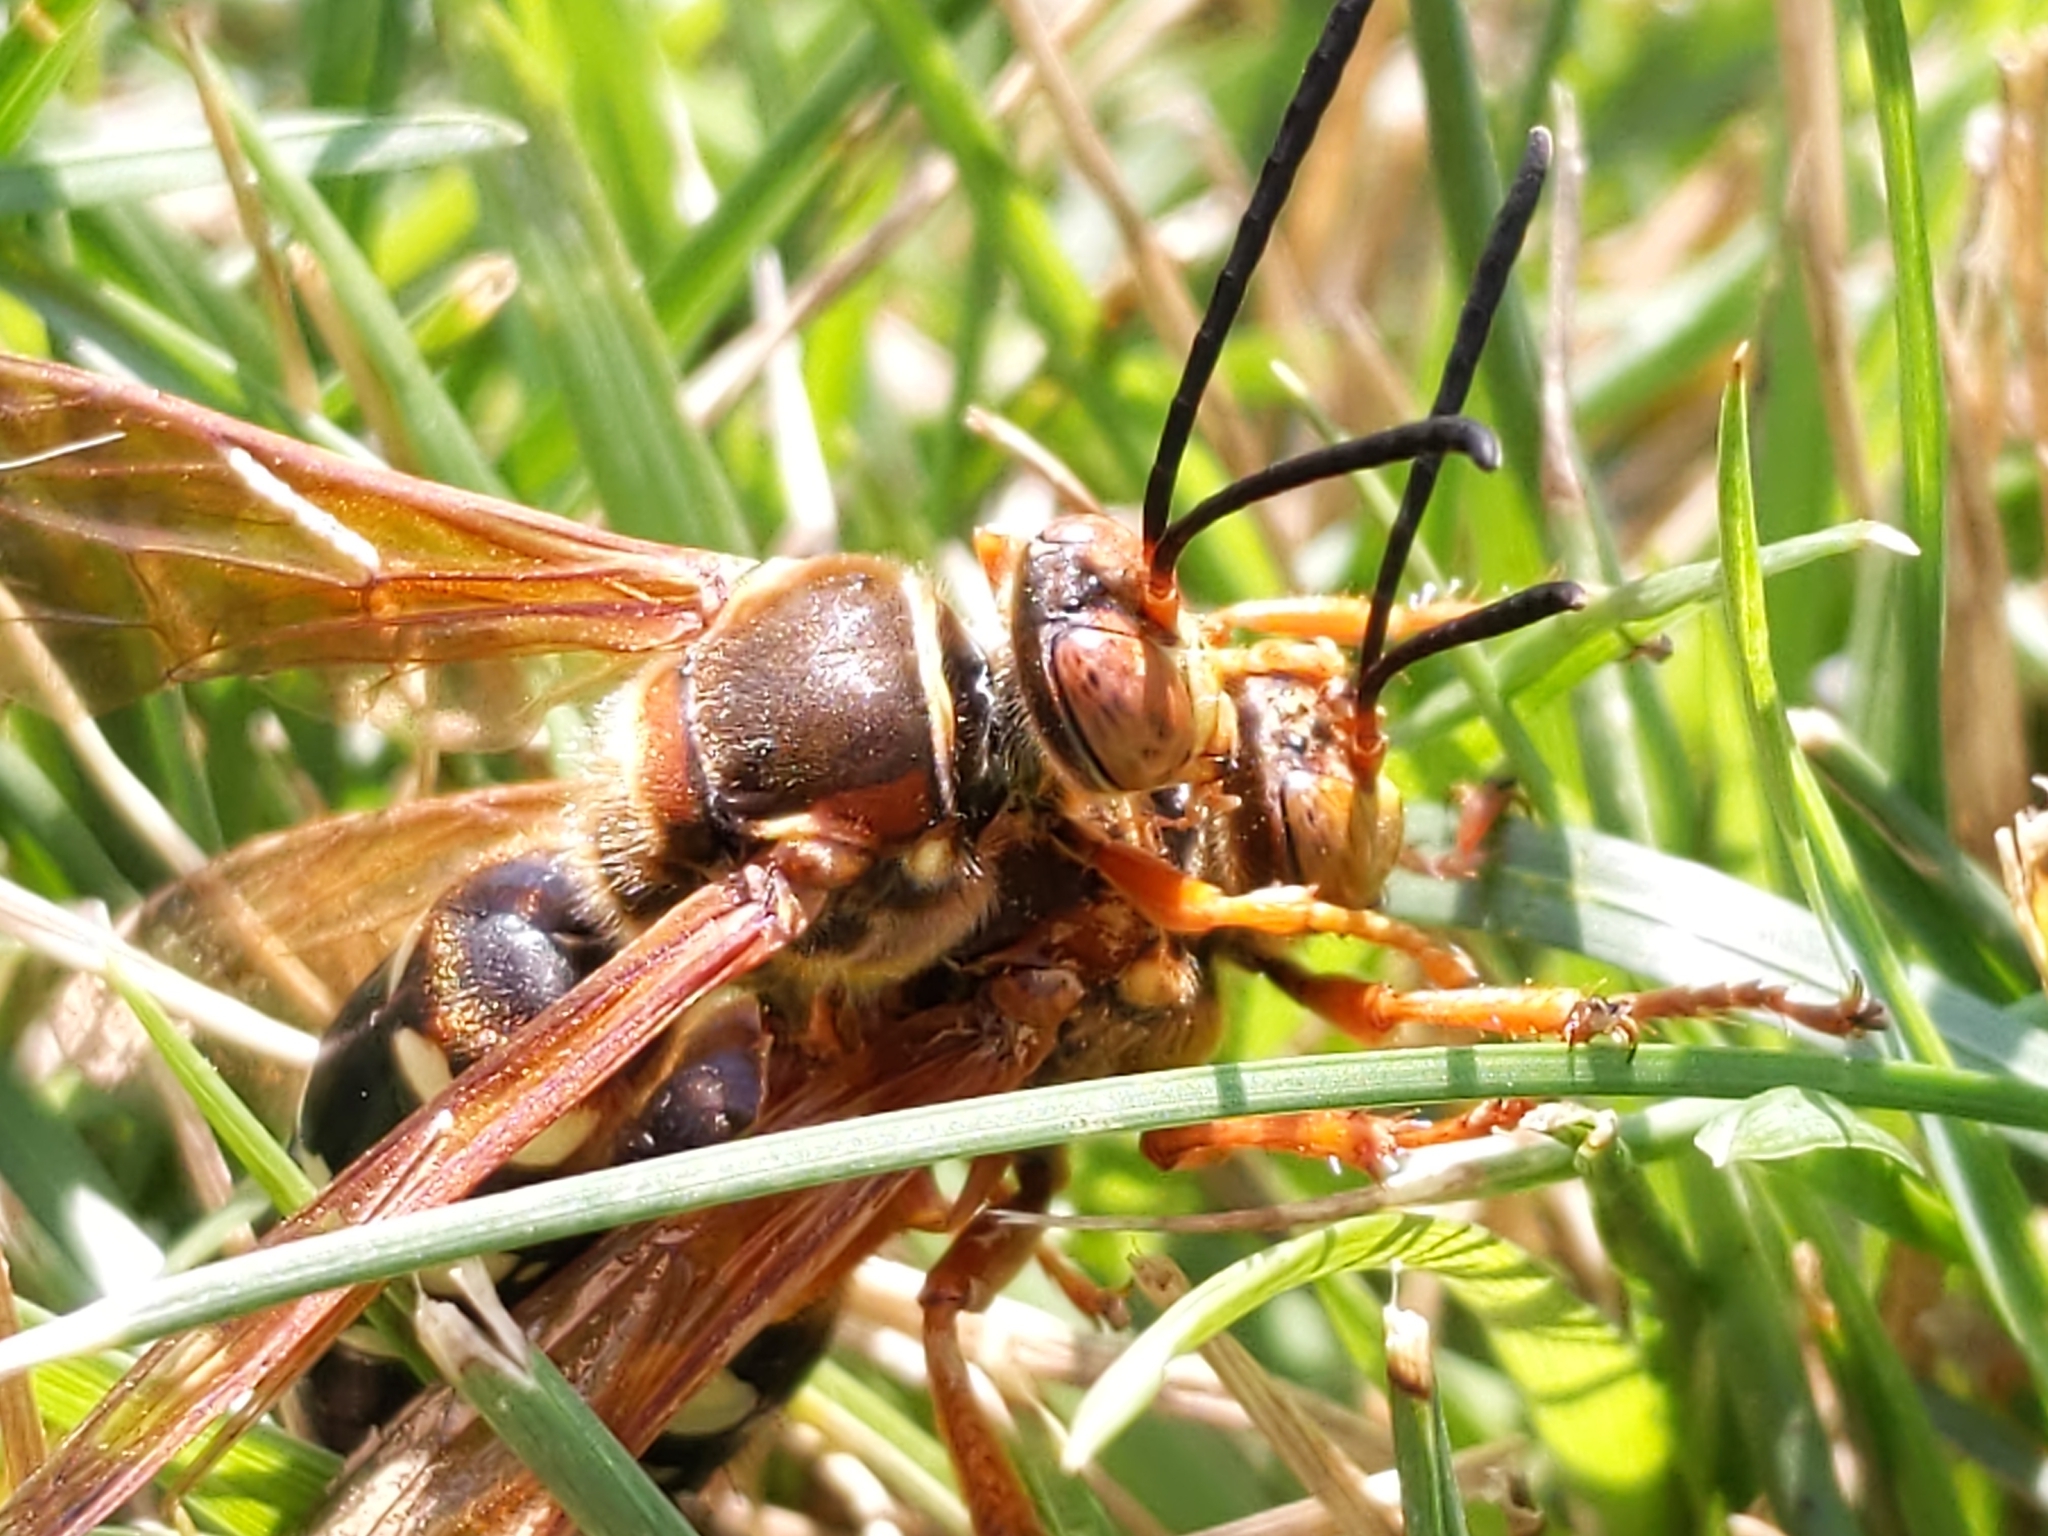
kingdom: Animalia
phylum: Arthropoda
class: Insecta
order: Hymenoptera
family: Crabronidae
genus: Sphecius
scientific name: Sphecius speciosus
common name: Cicada killer
